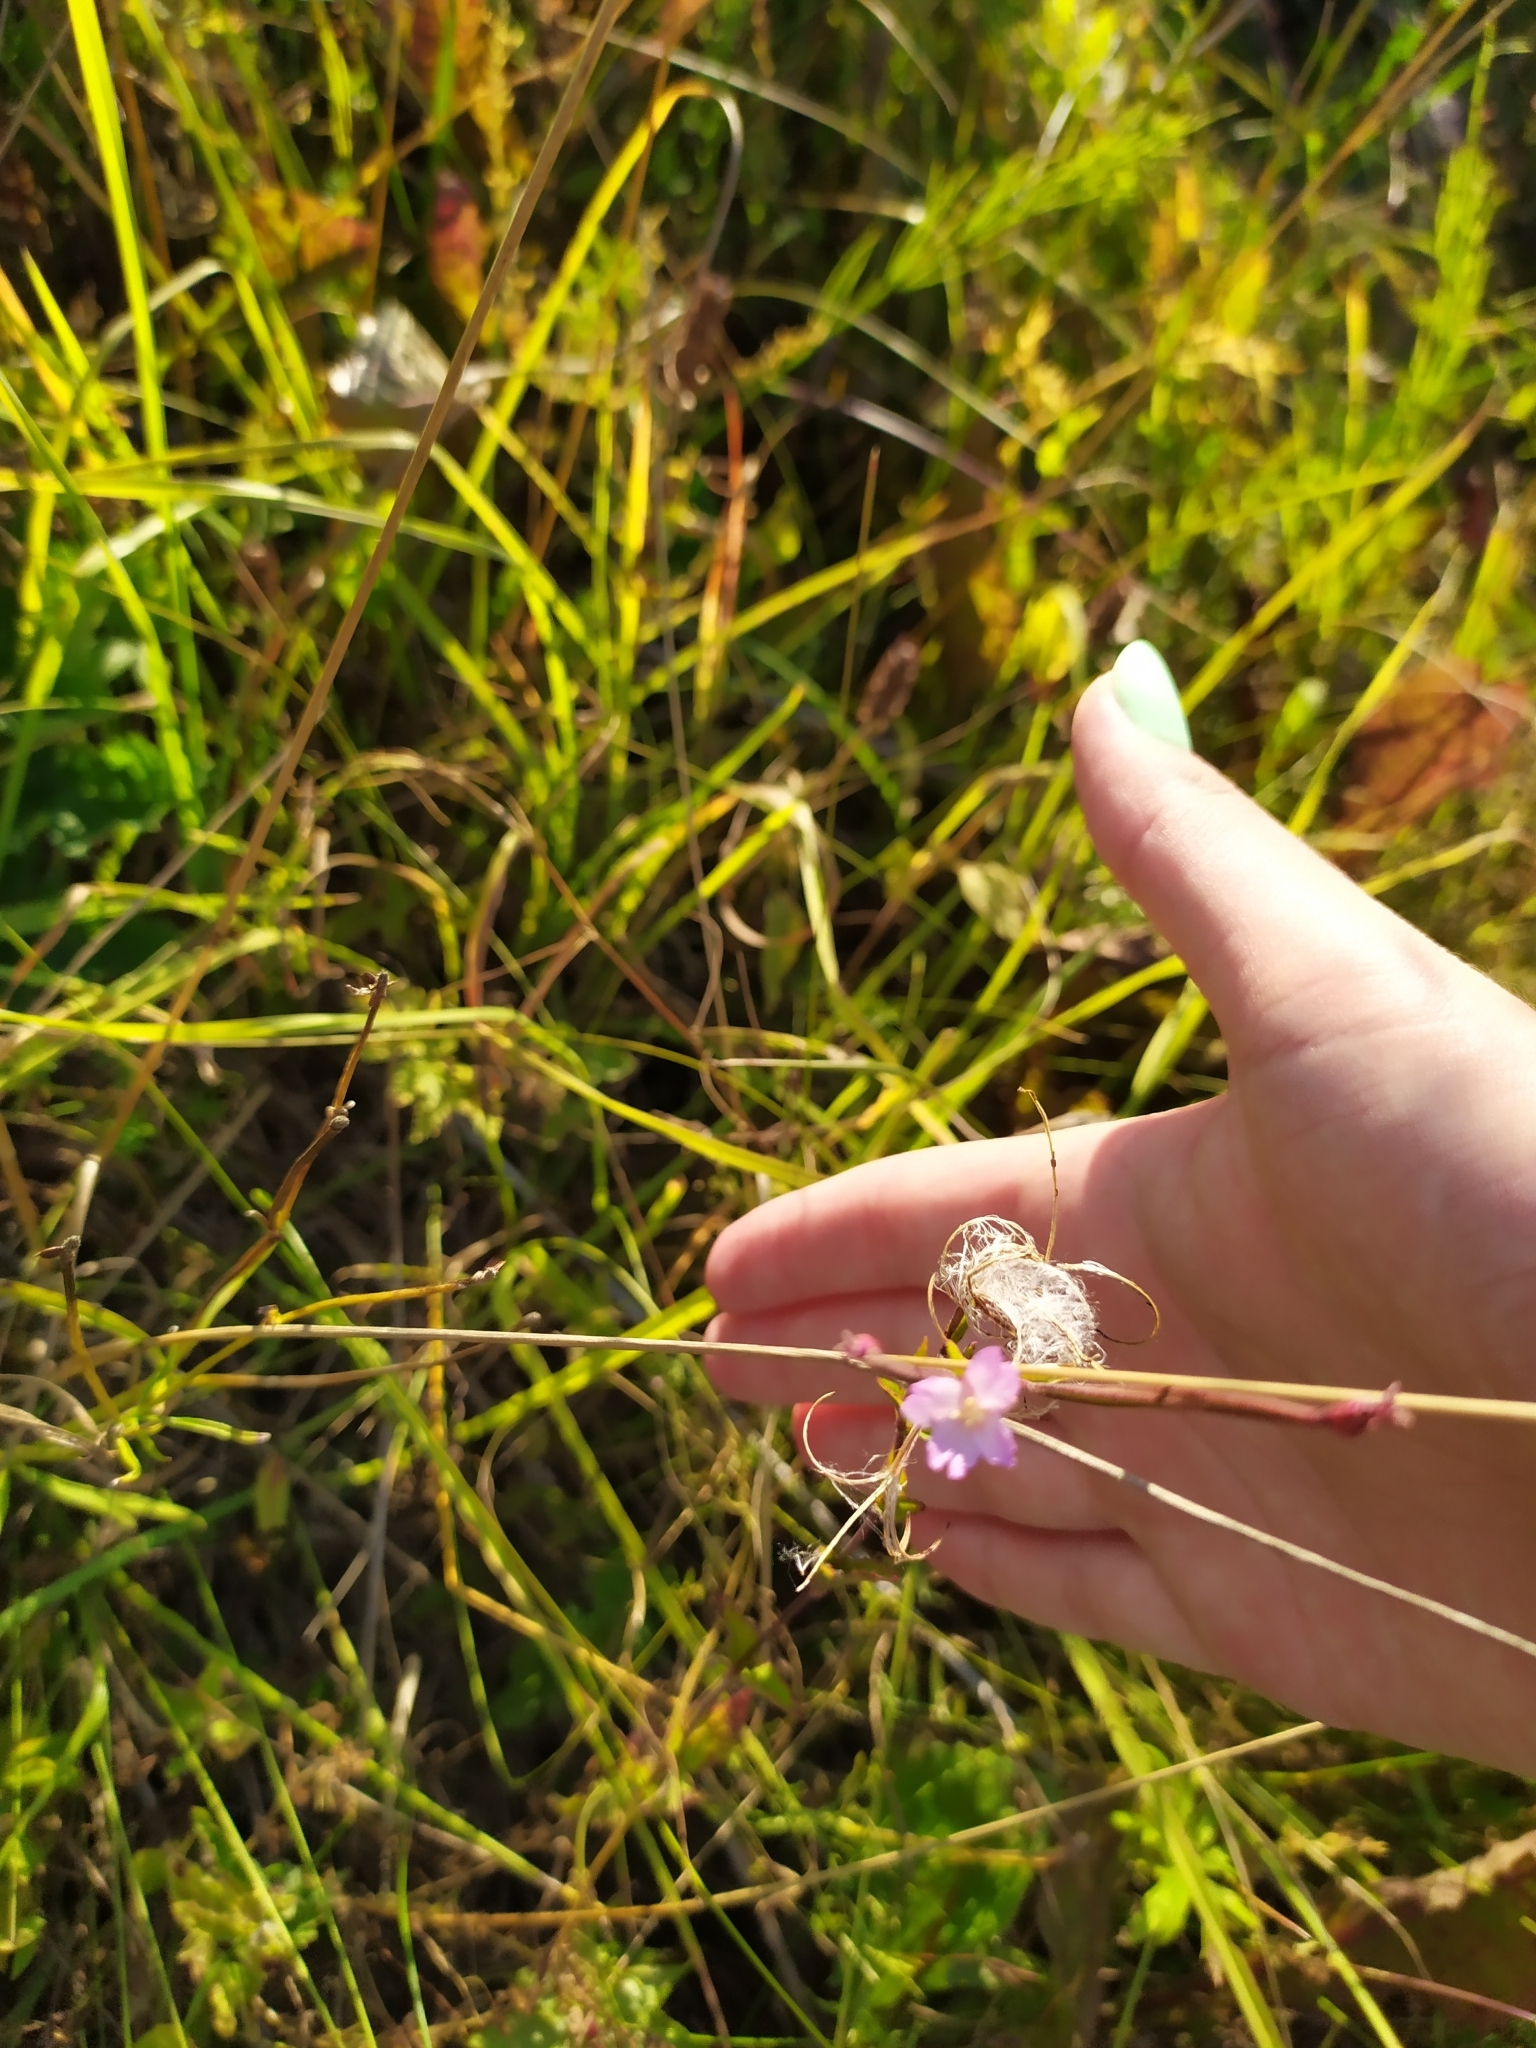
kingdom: Plantae
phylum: Tracheophyta
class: Magnoliopsida
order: Myrtales
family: Onagraceae
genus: Epilobium
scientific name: Epilobium montanum
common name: Broad-leaved willowherb
